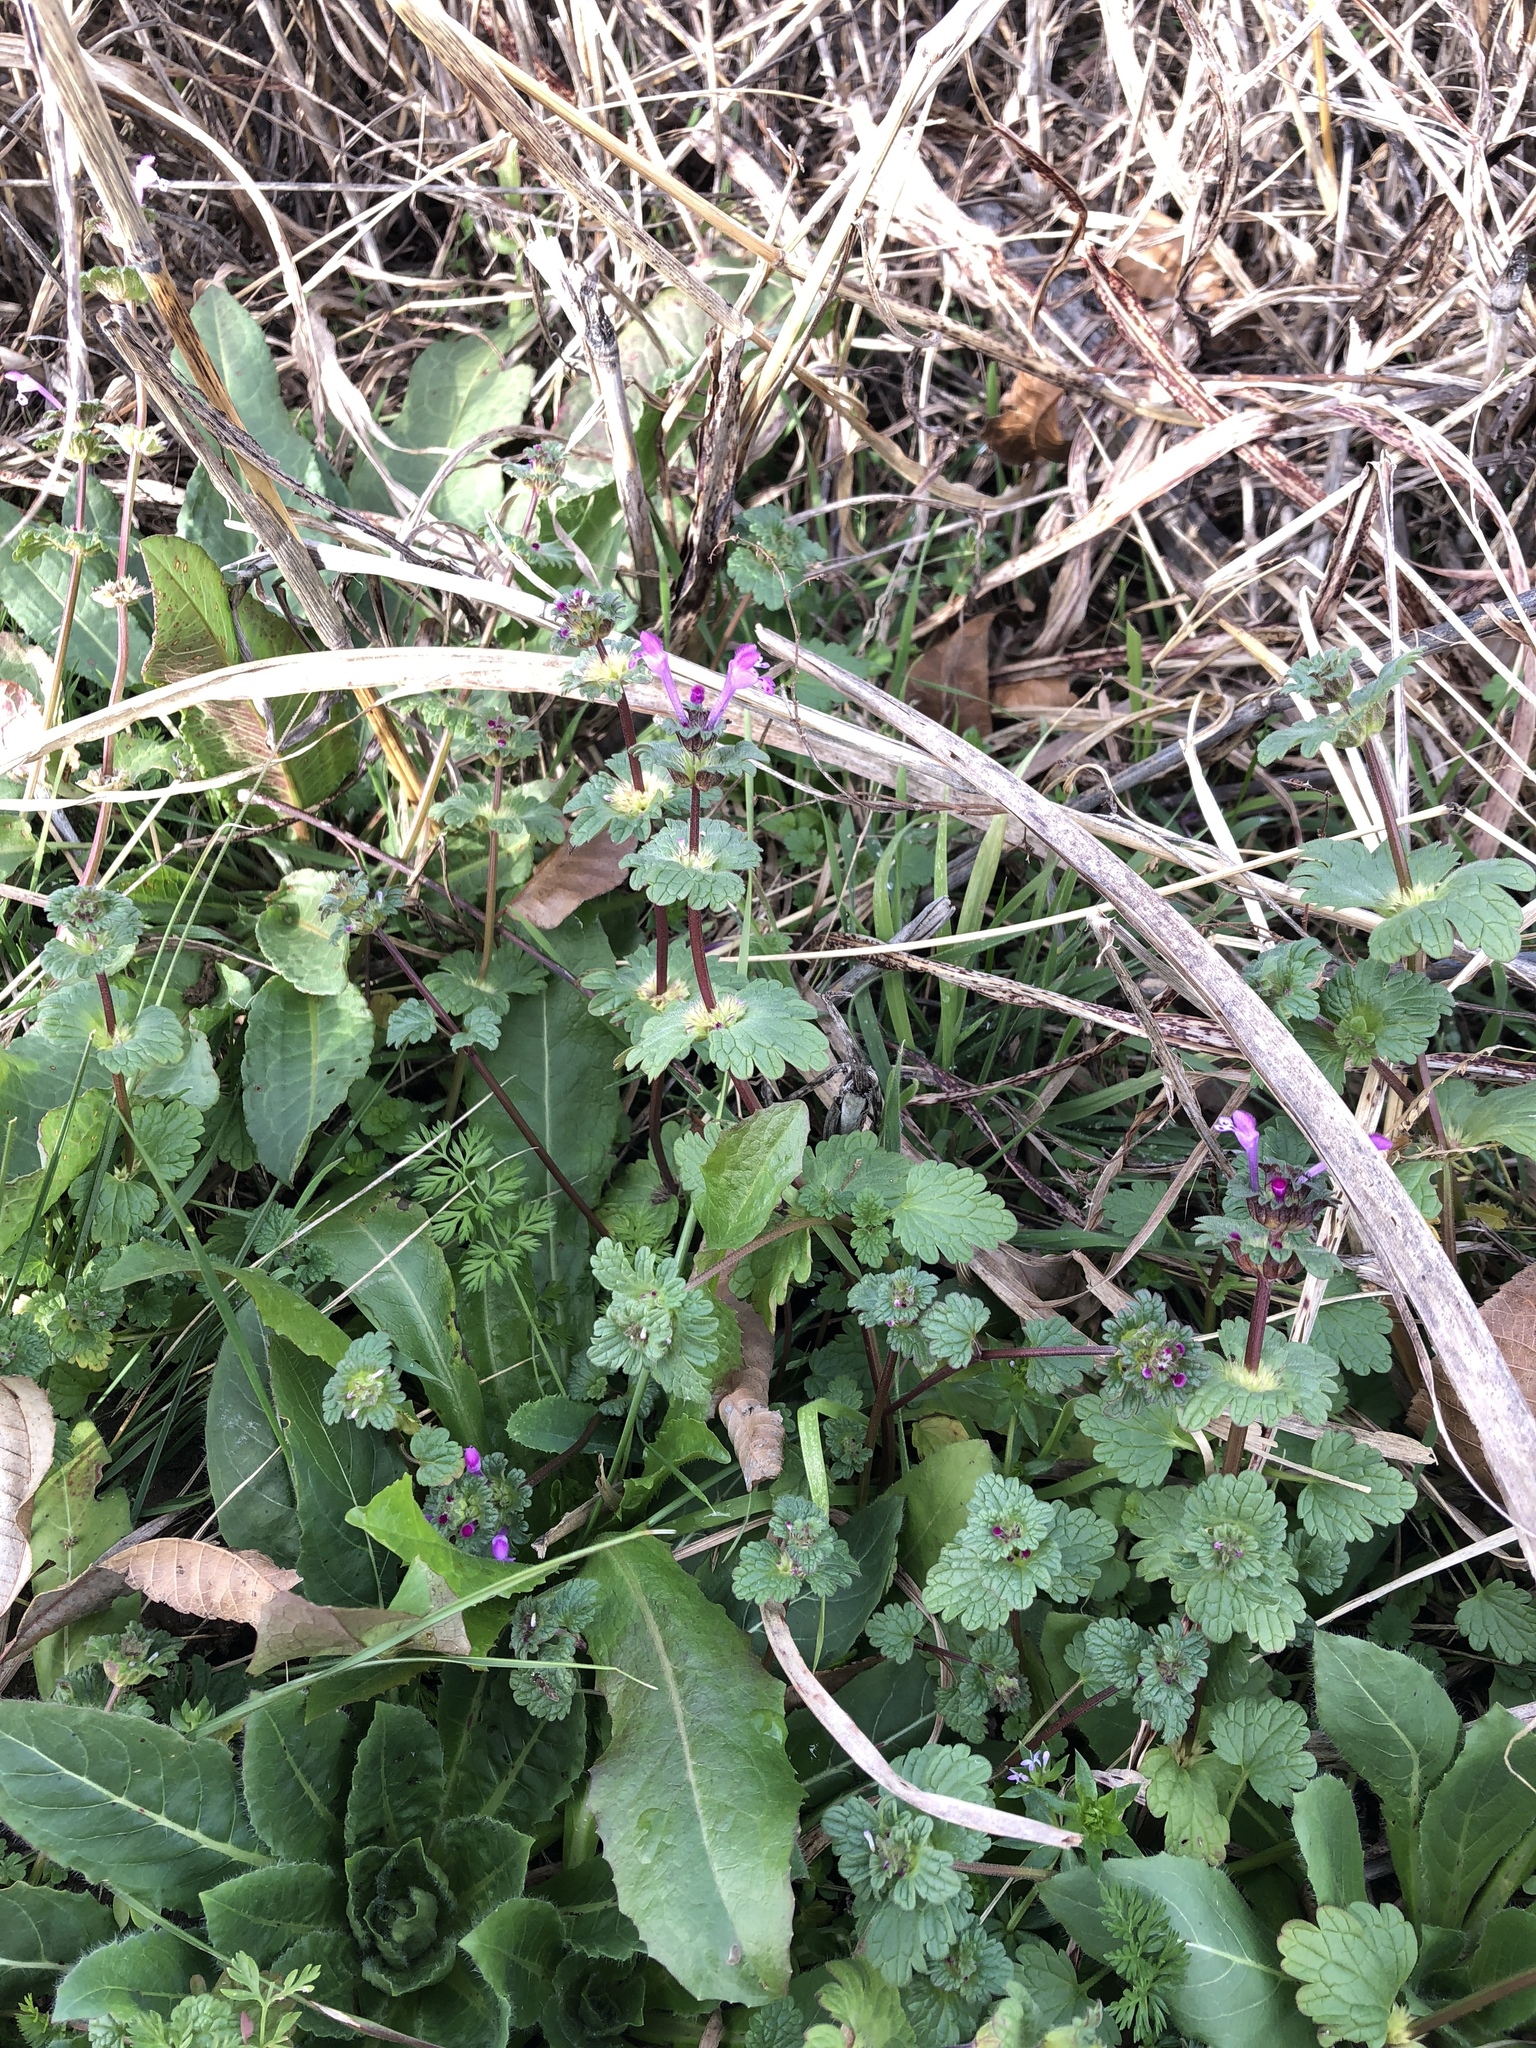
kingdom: Plantae
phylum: Tracheophyta
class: Magnoliopsida
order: Lamiales
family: Lamiaceae
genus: Lamium
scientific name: Lamium amplexicaule
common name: Henbit dead-nettle
